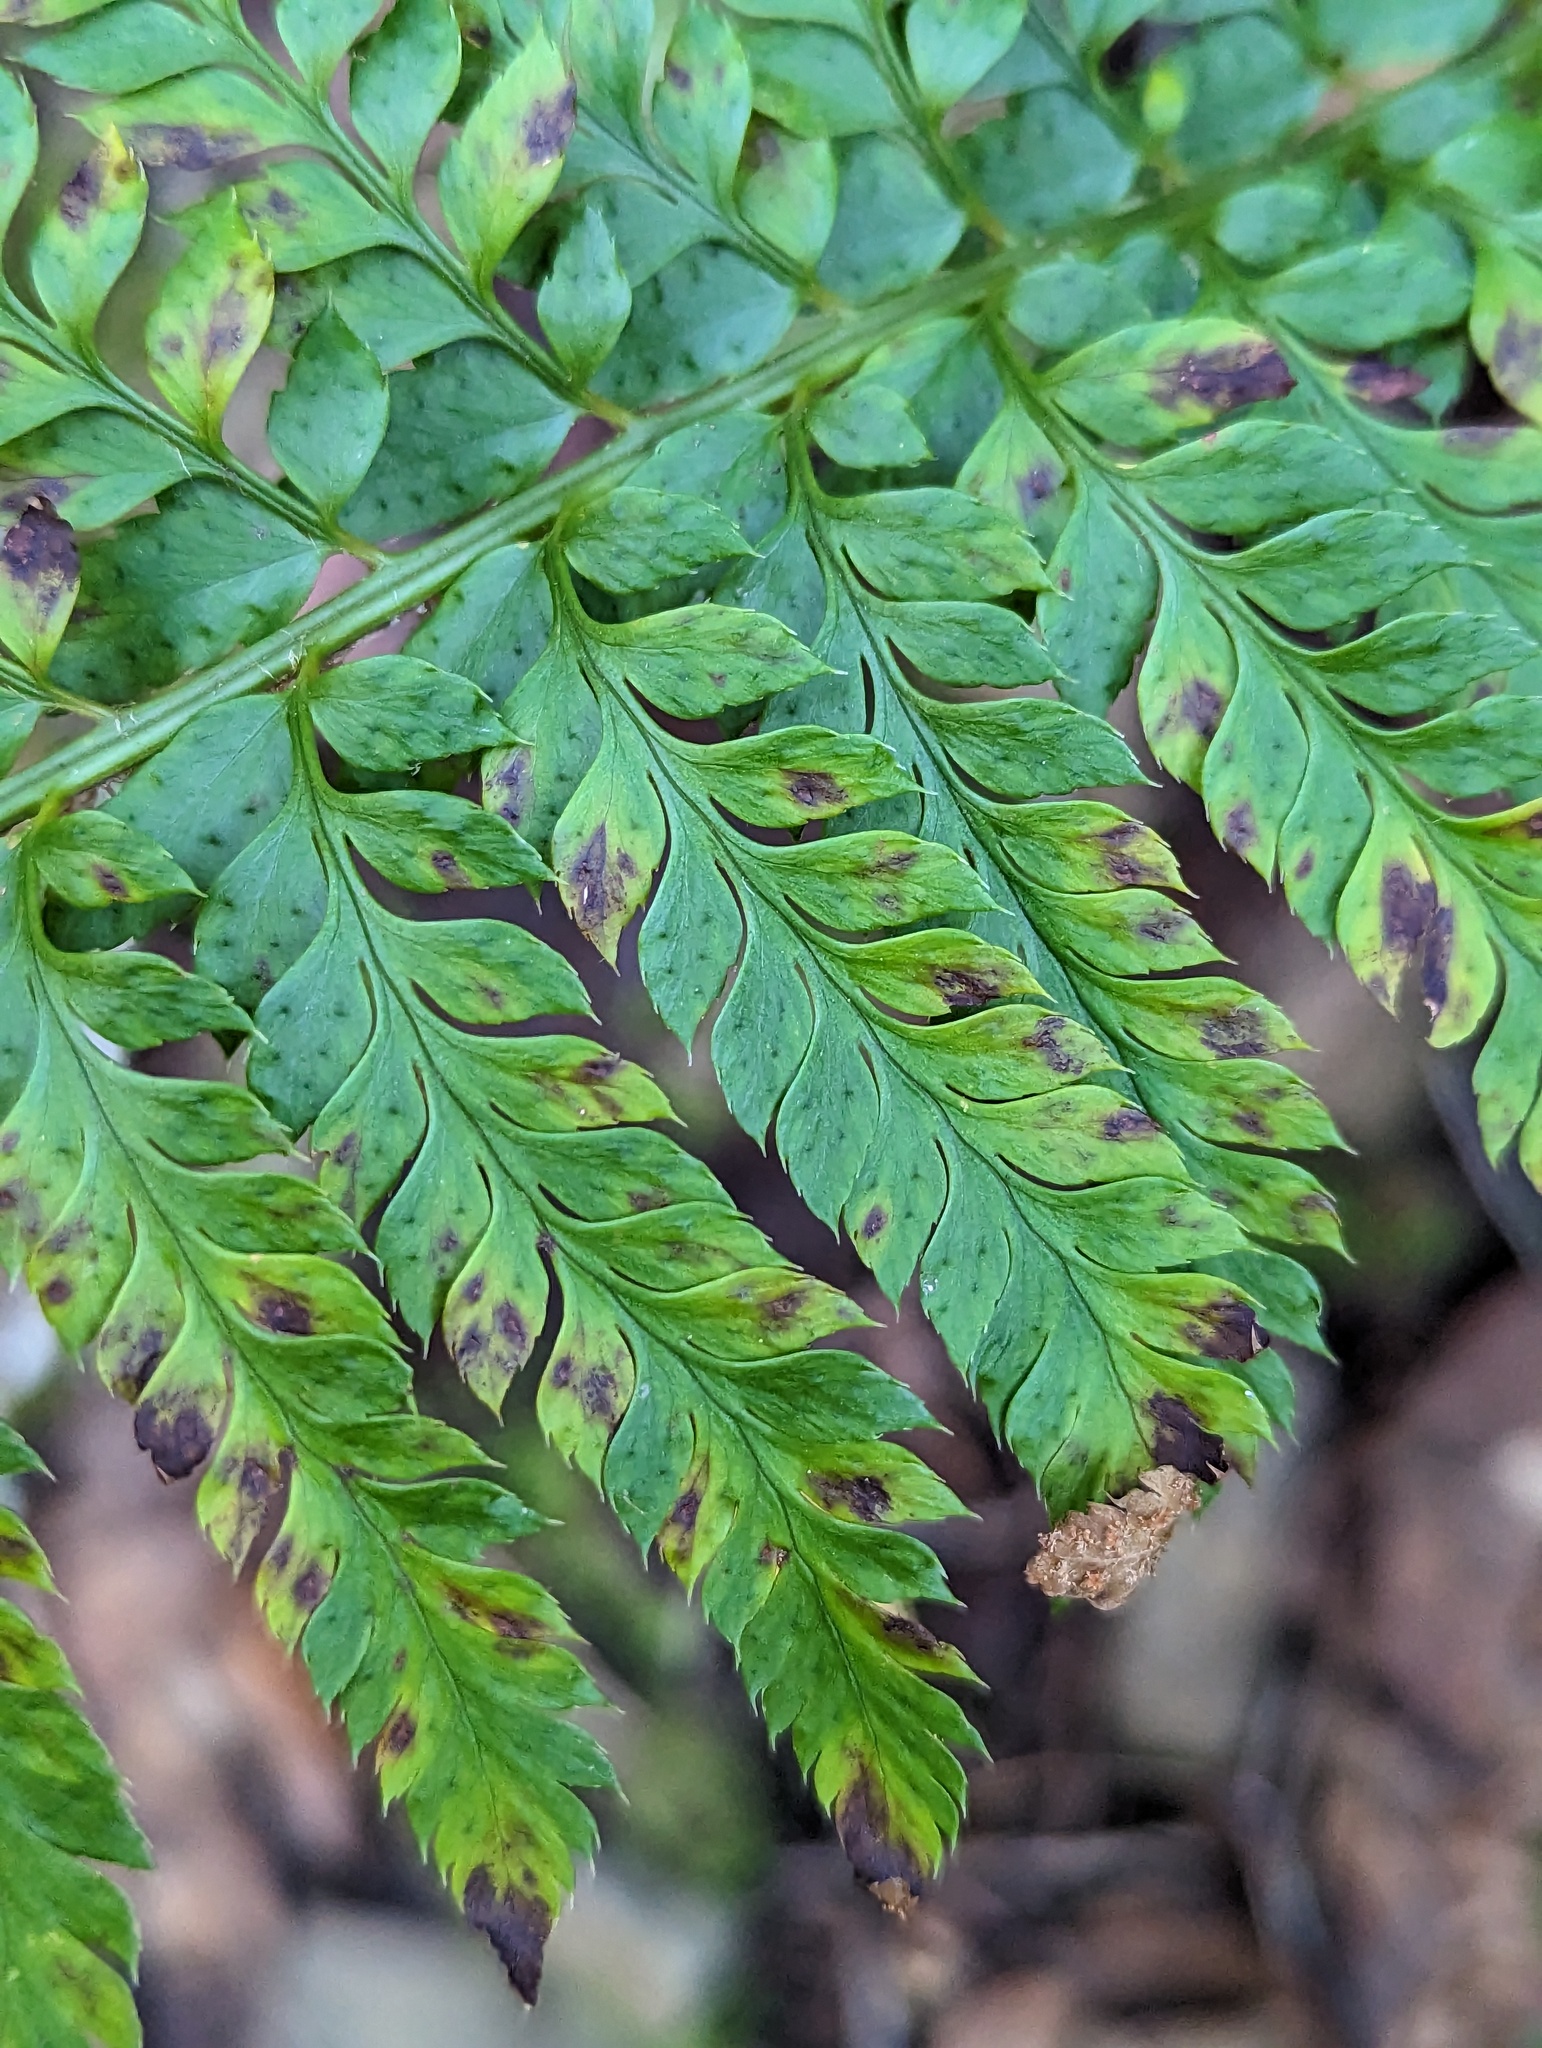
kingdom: Plantae
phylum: Tracheophyta
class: Polypodiopsida
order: Polypodiales
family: Dryopteridaceae
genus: Polystichum
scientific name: Polystichum californicum
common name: California sword fern
